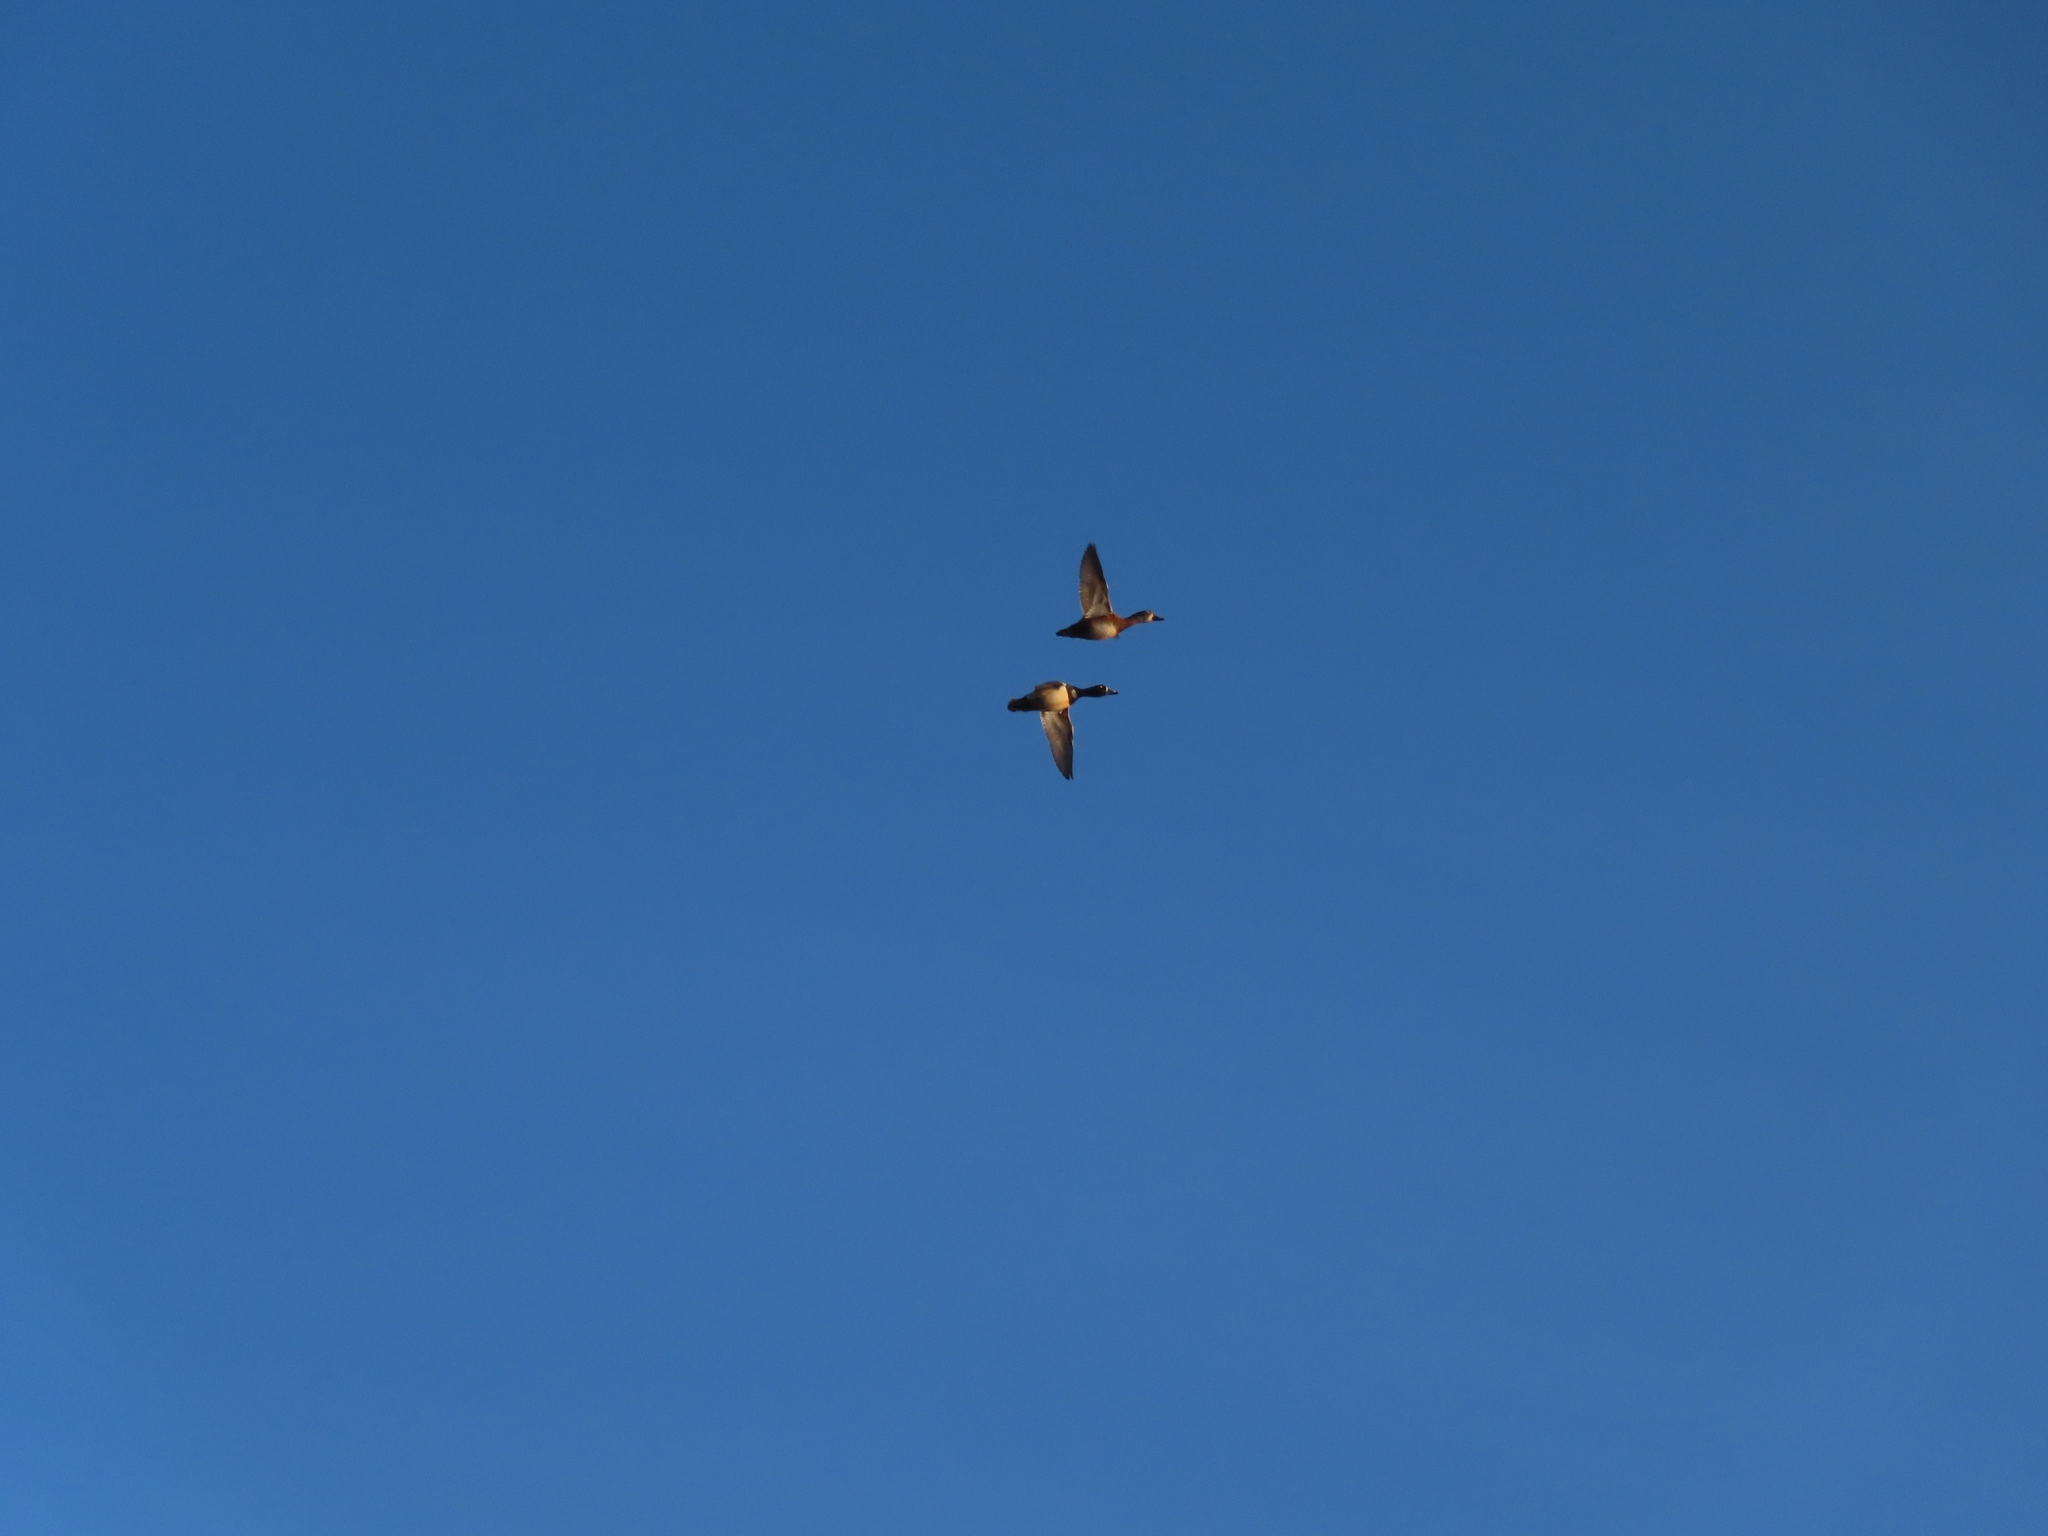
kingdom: Animalia
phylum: Chordata
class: Aves
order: Anseriformes
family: Anatidae
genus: Aythya
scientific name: Aythya collaris
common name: Ring-necked duck
